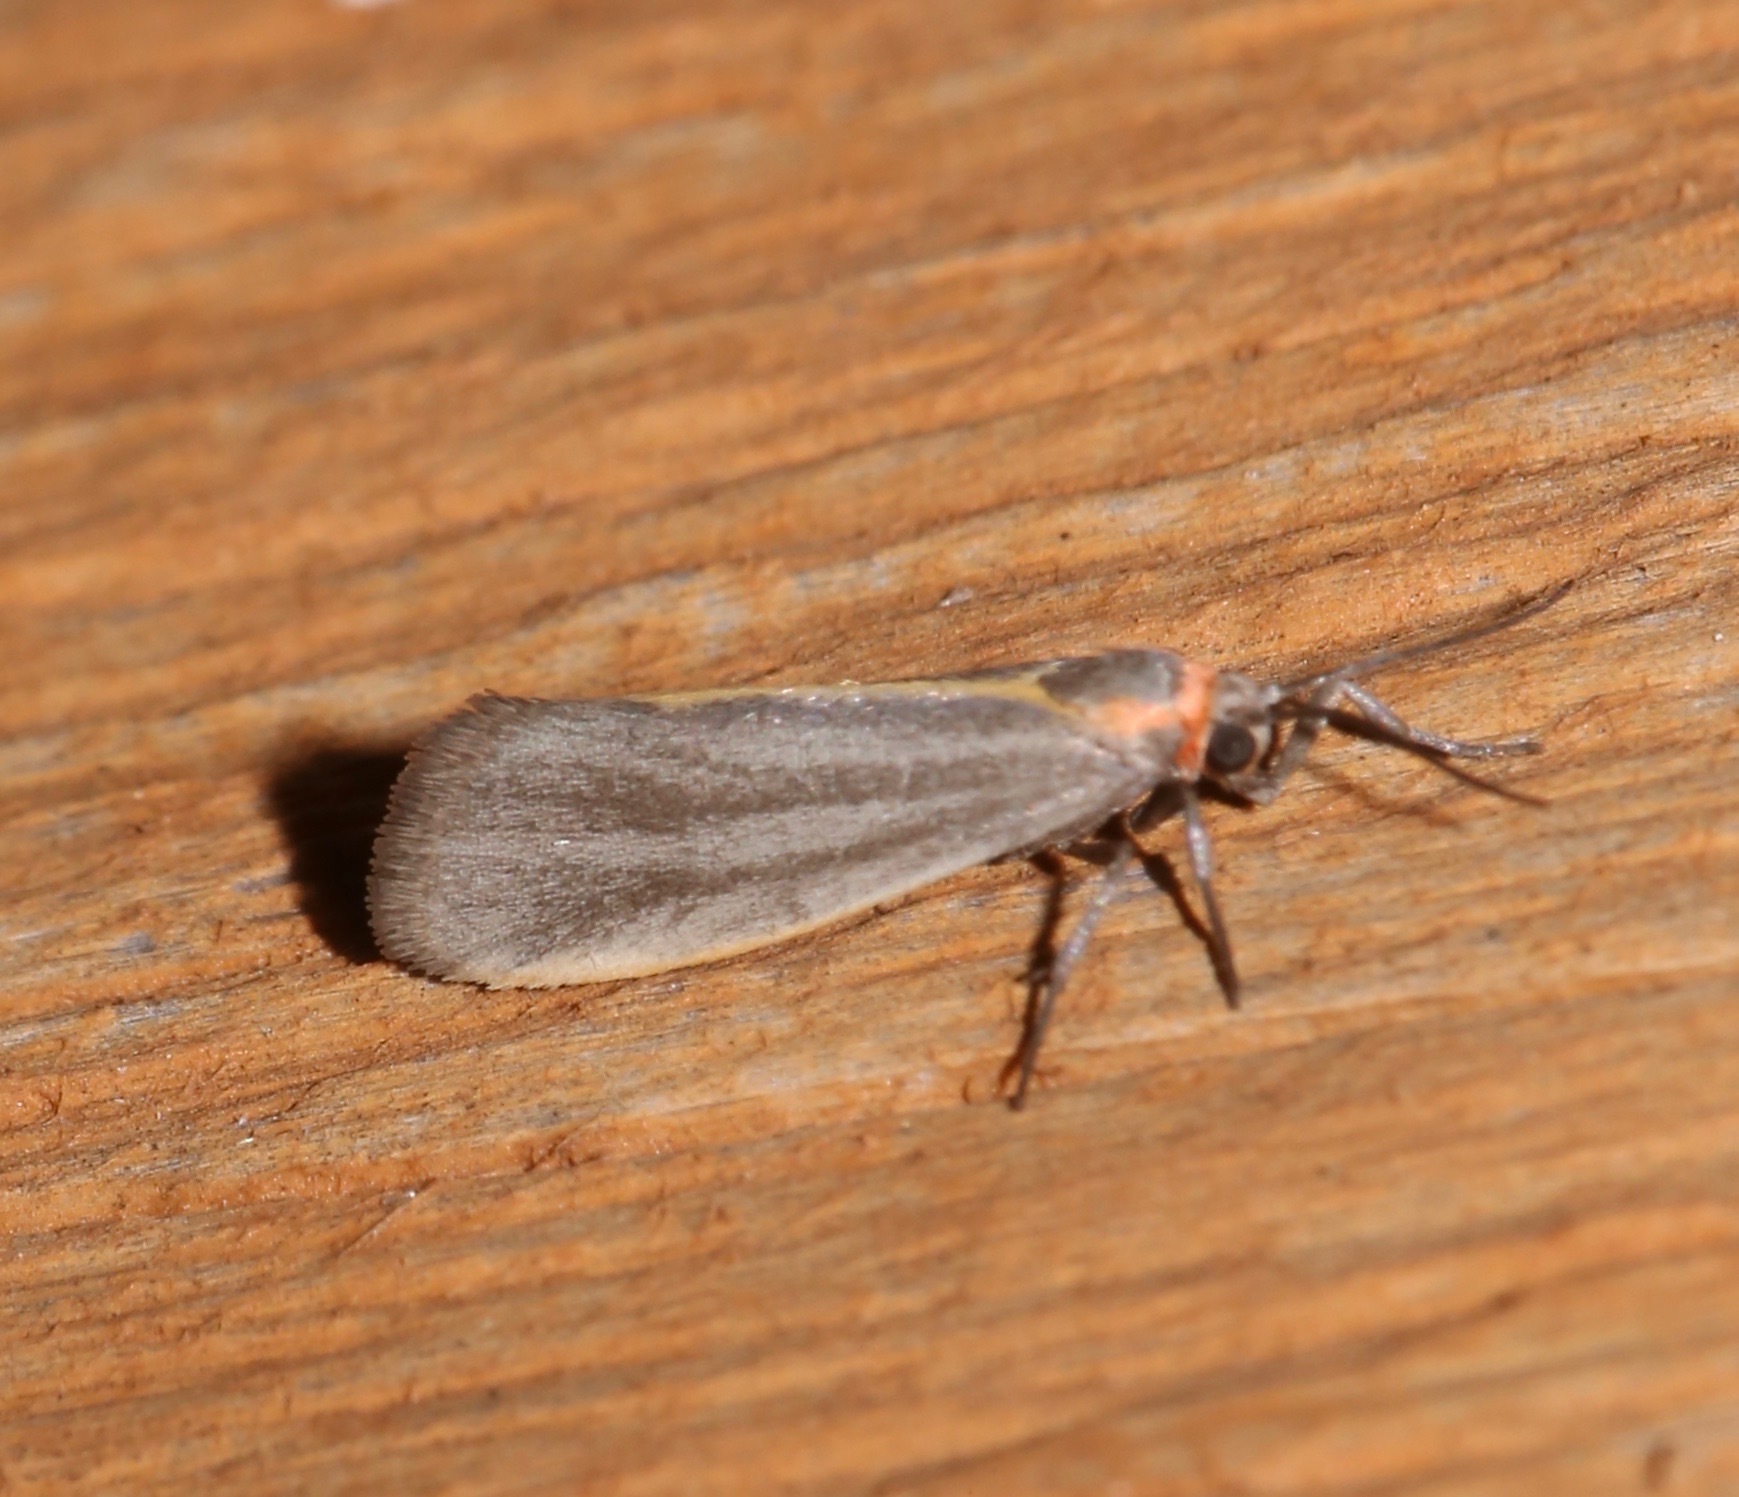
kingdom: Animalia
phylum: Arthropoda
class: Insecta
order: Lepidoptera
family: Erebidae
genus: Cisthene
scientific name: Cisthene striata
